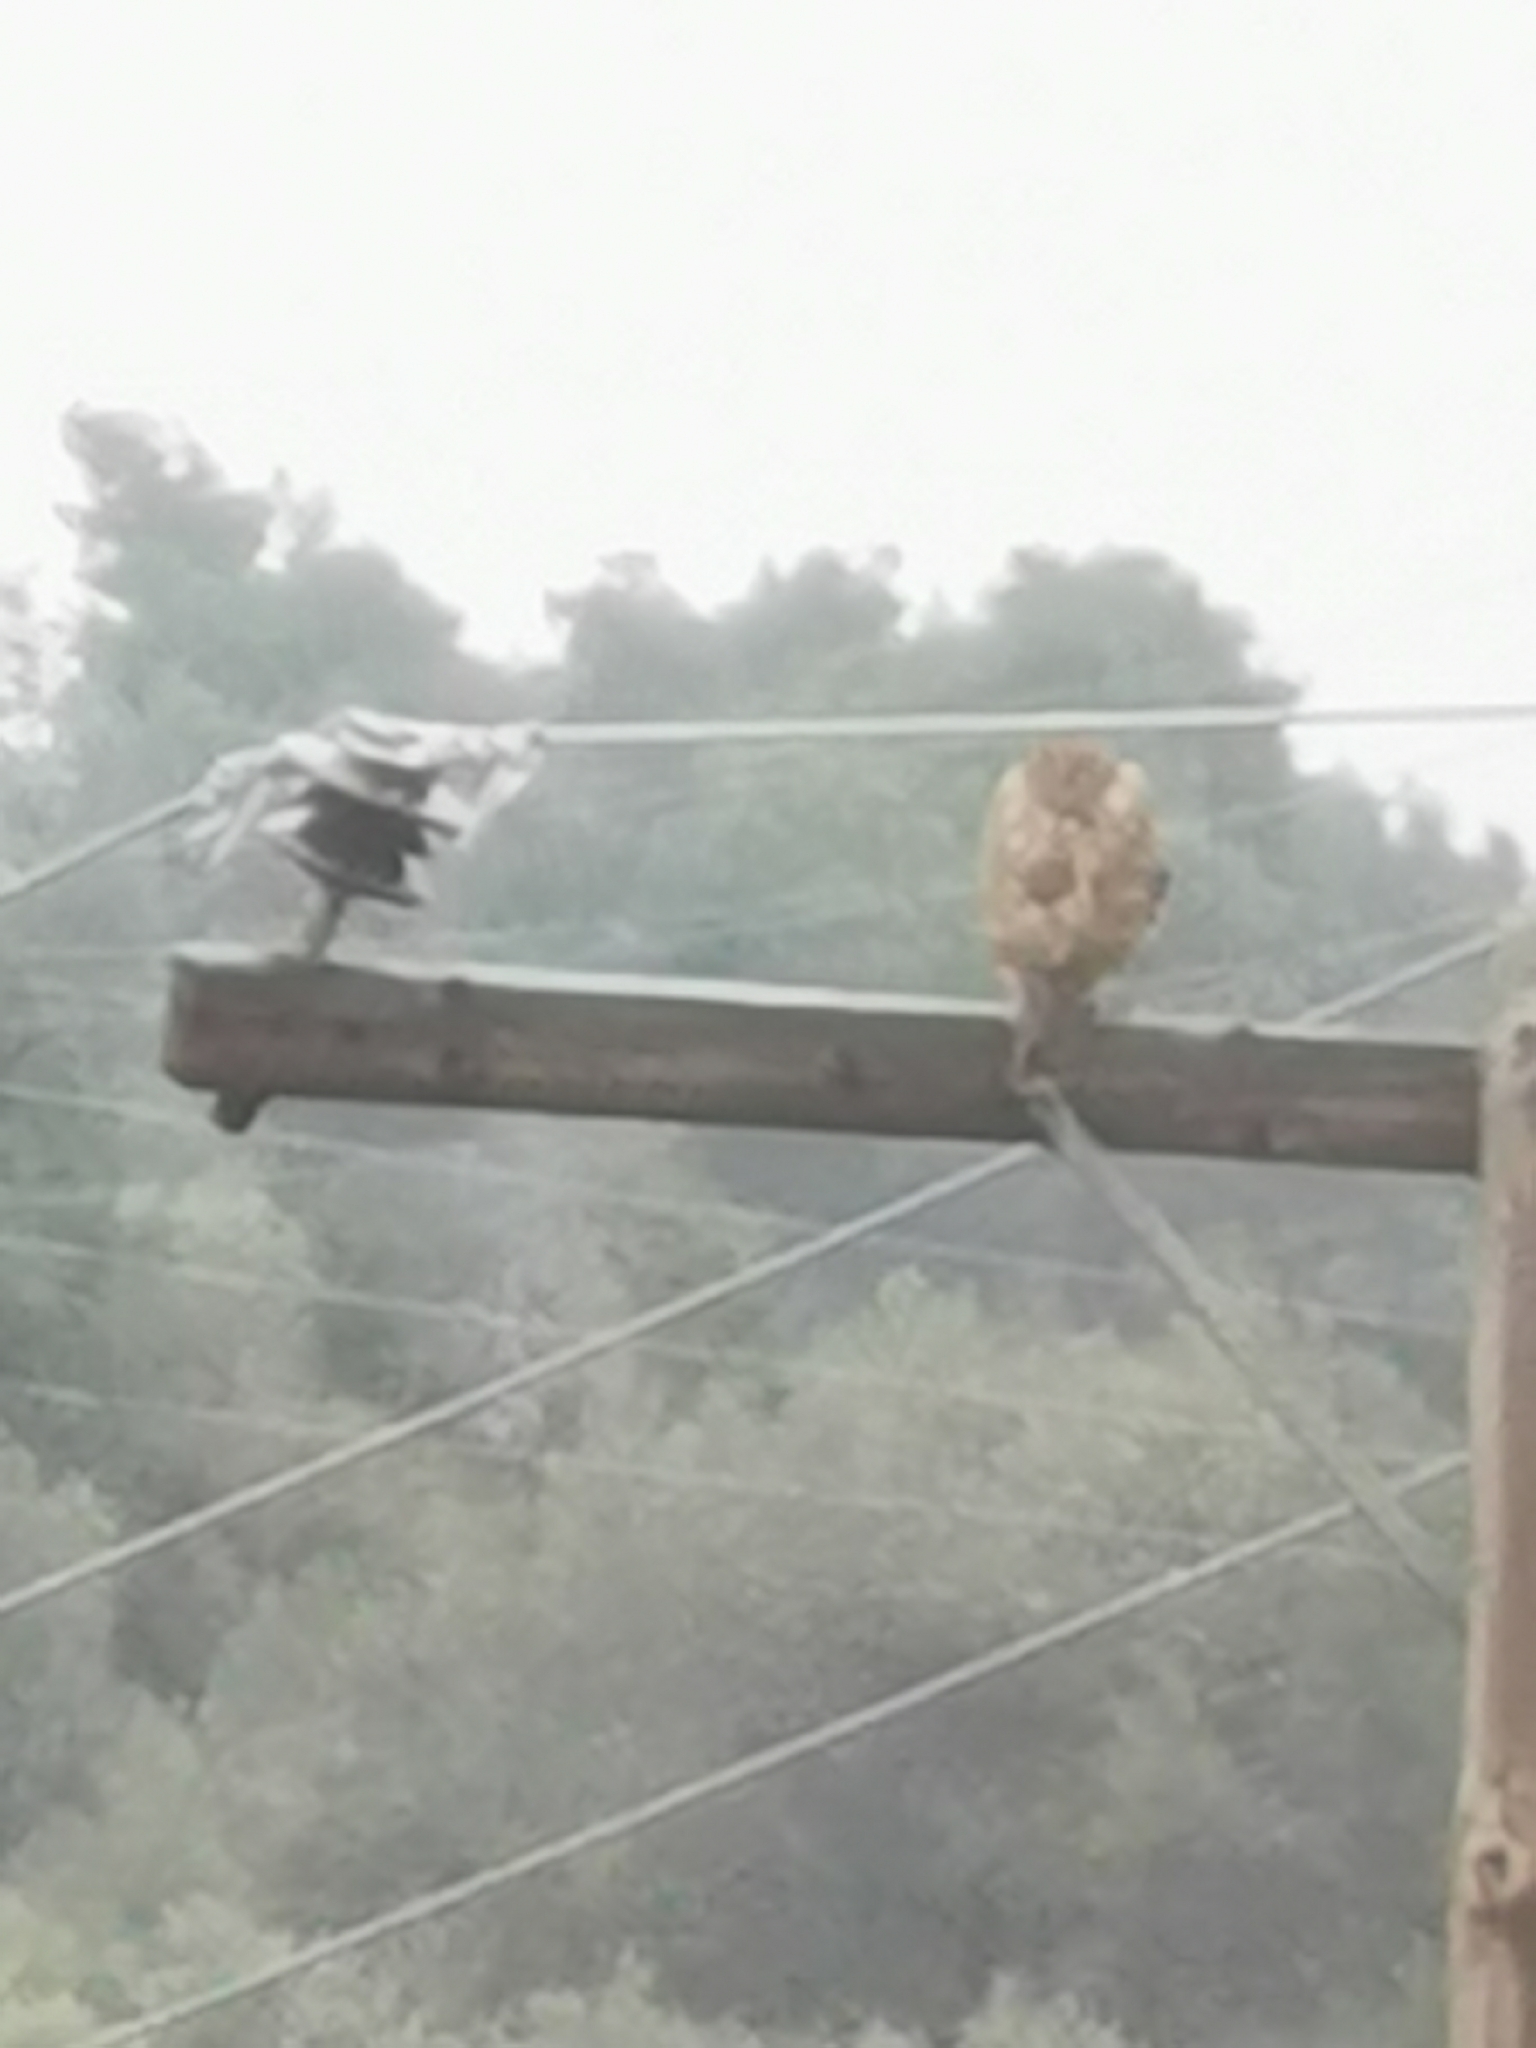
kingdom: Animalia
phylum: Chordata
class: Aves
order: Accipitriformes
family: Accipitridae
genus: Buteo
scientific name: Buteo buteo
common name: Common buzzard
